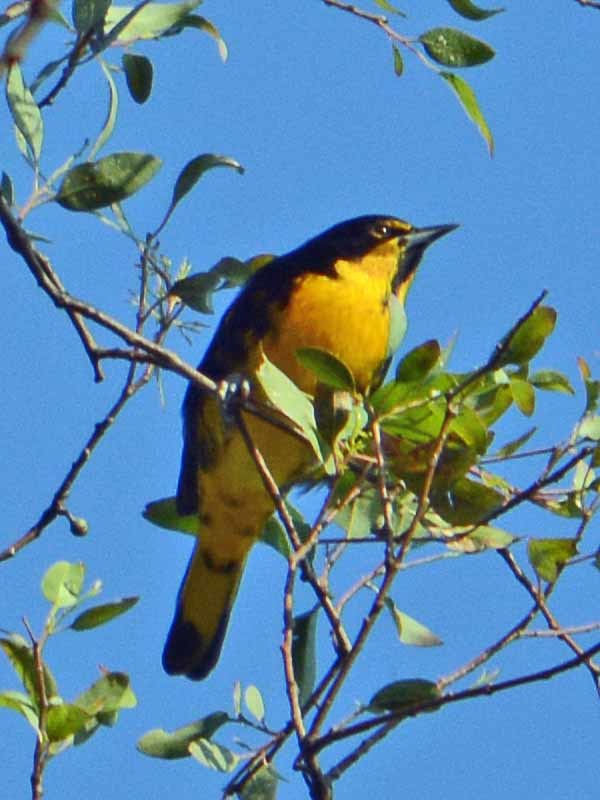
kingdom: Animalia
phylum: Chordata
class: Aves
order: Passeriformes
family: Icteridae
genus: Icterus
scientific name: Icterus abeillei
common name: Black-backed oriole
